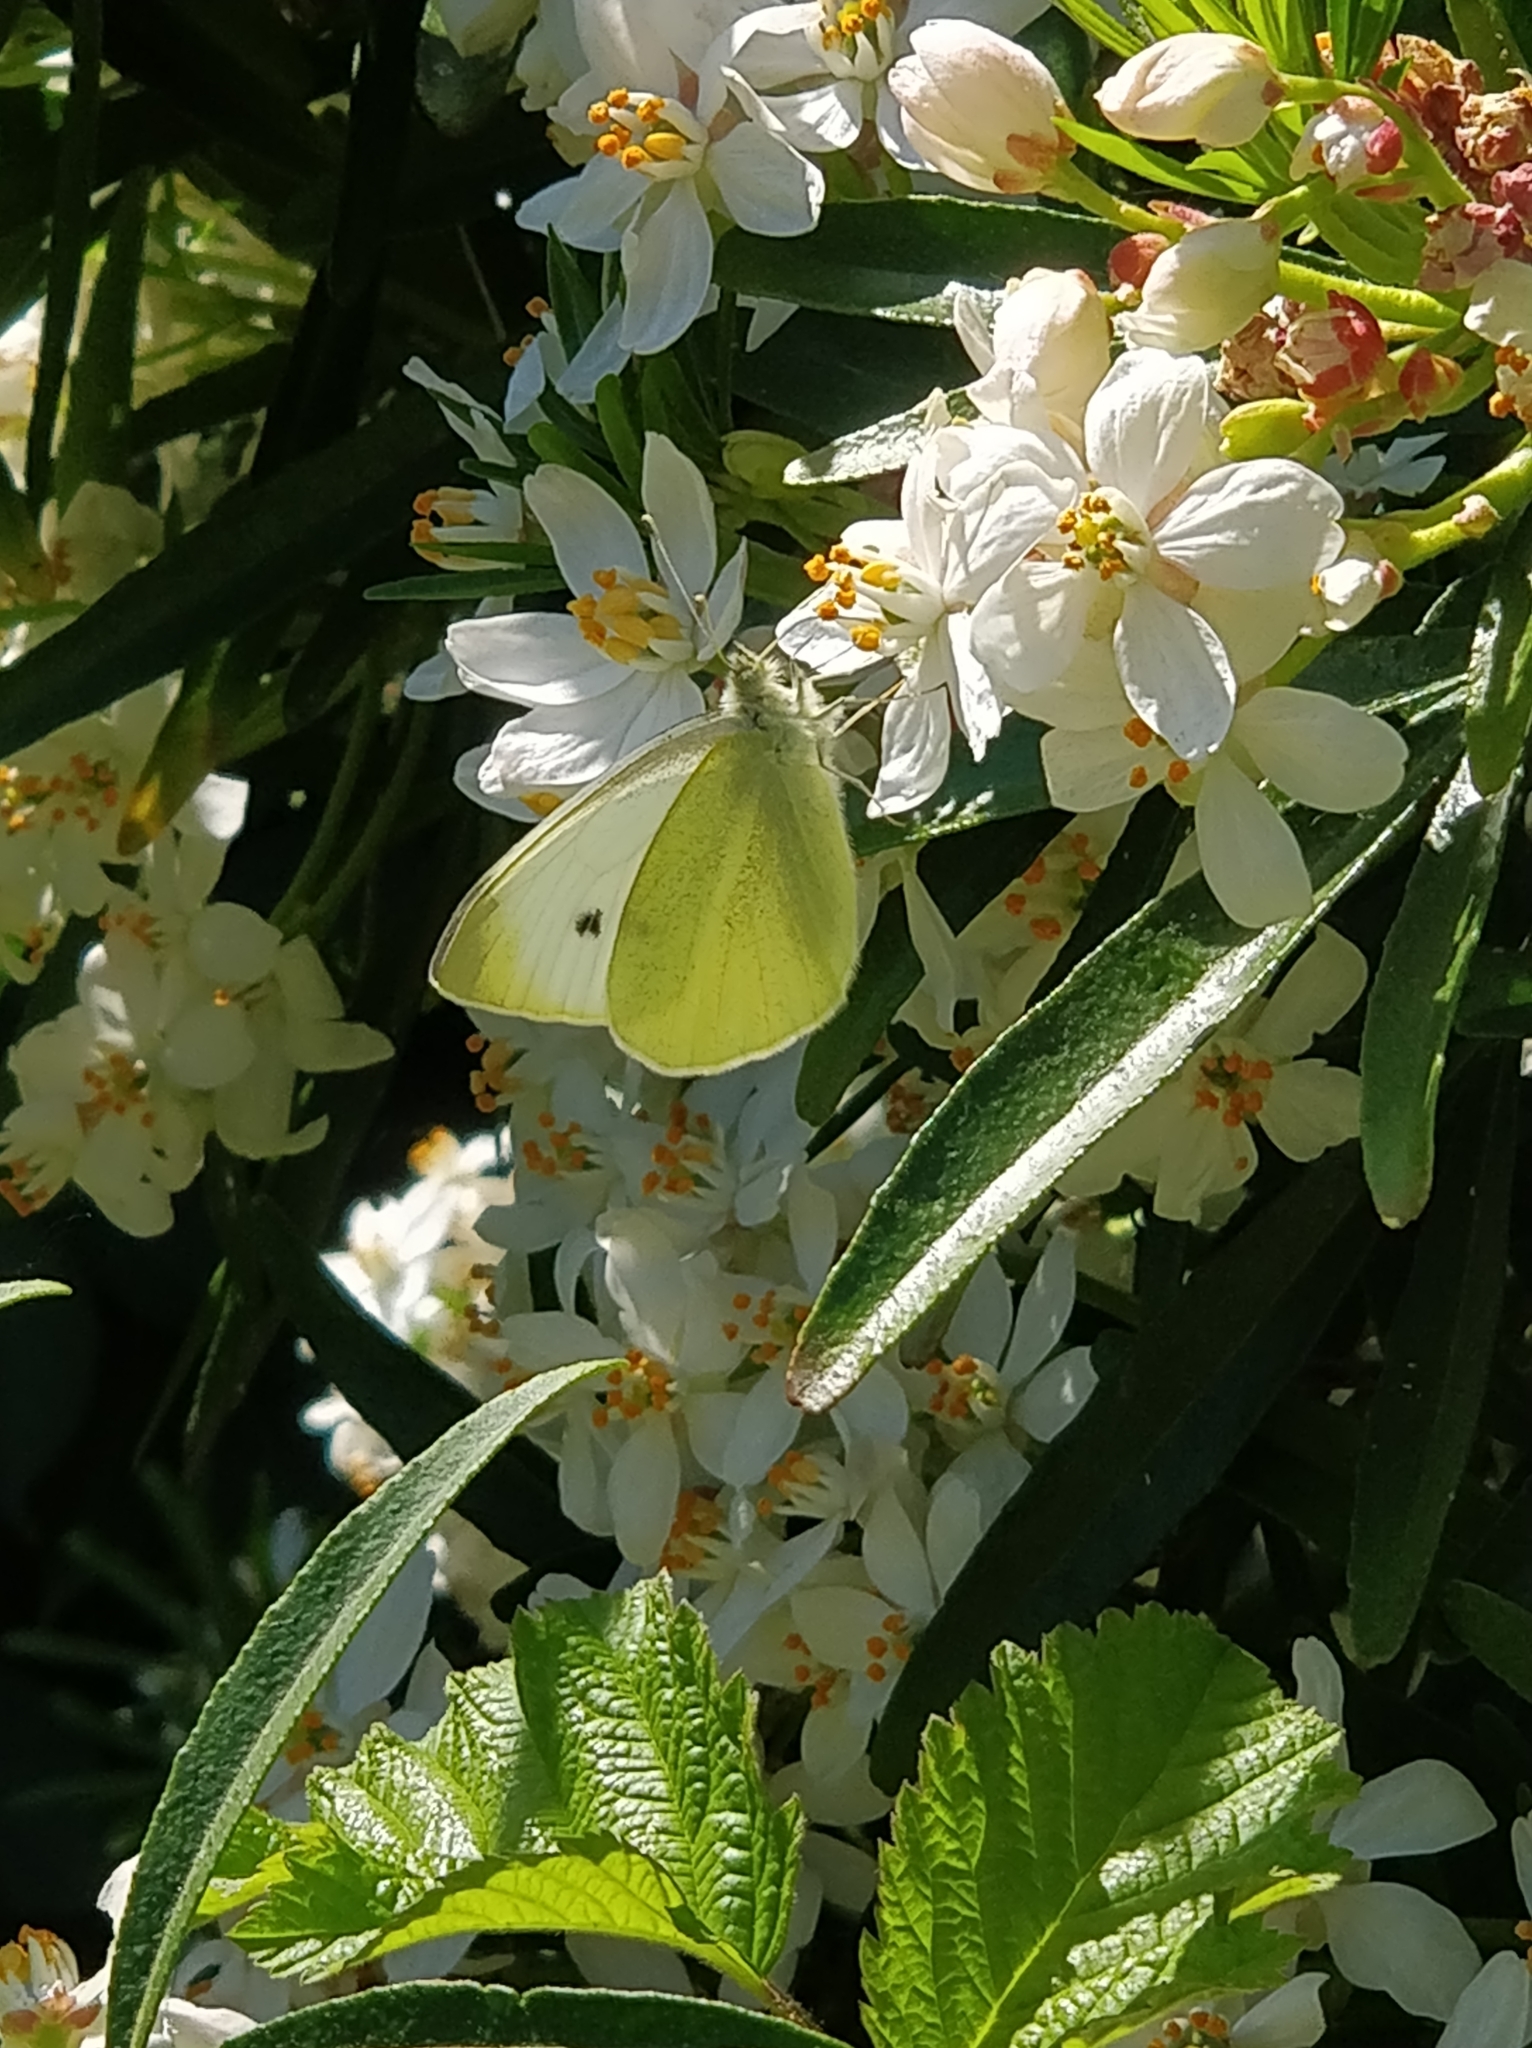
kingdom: Animalia
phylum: Arthropoda
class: Insecta
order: Lepidoptera
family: Pieridae
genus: Pieris
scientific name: Pieris rapae
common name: Small white
